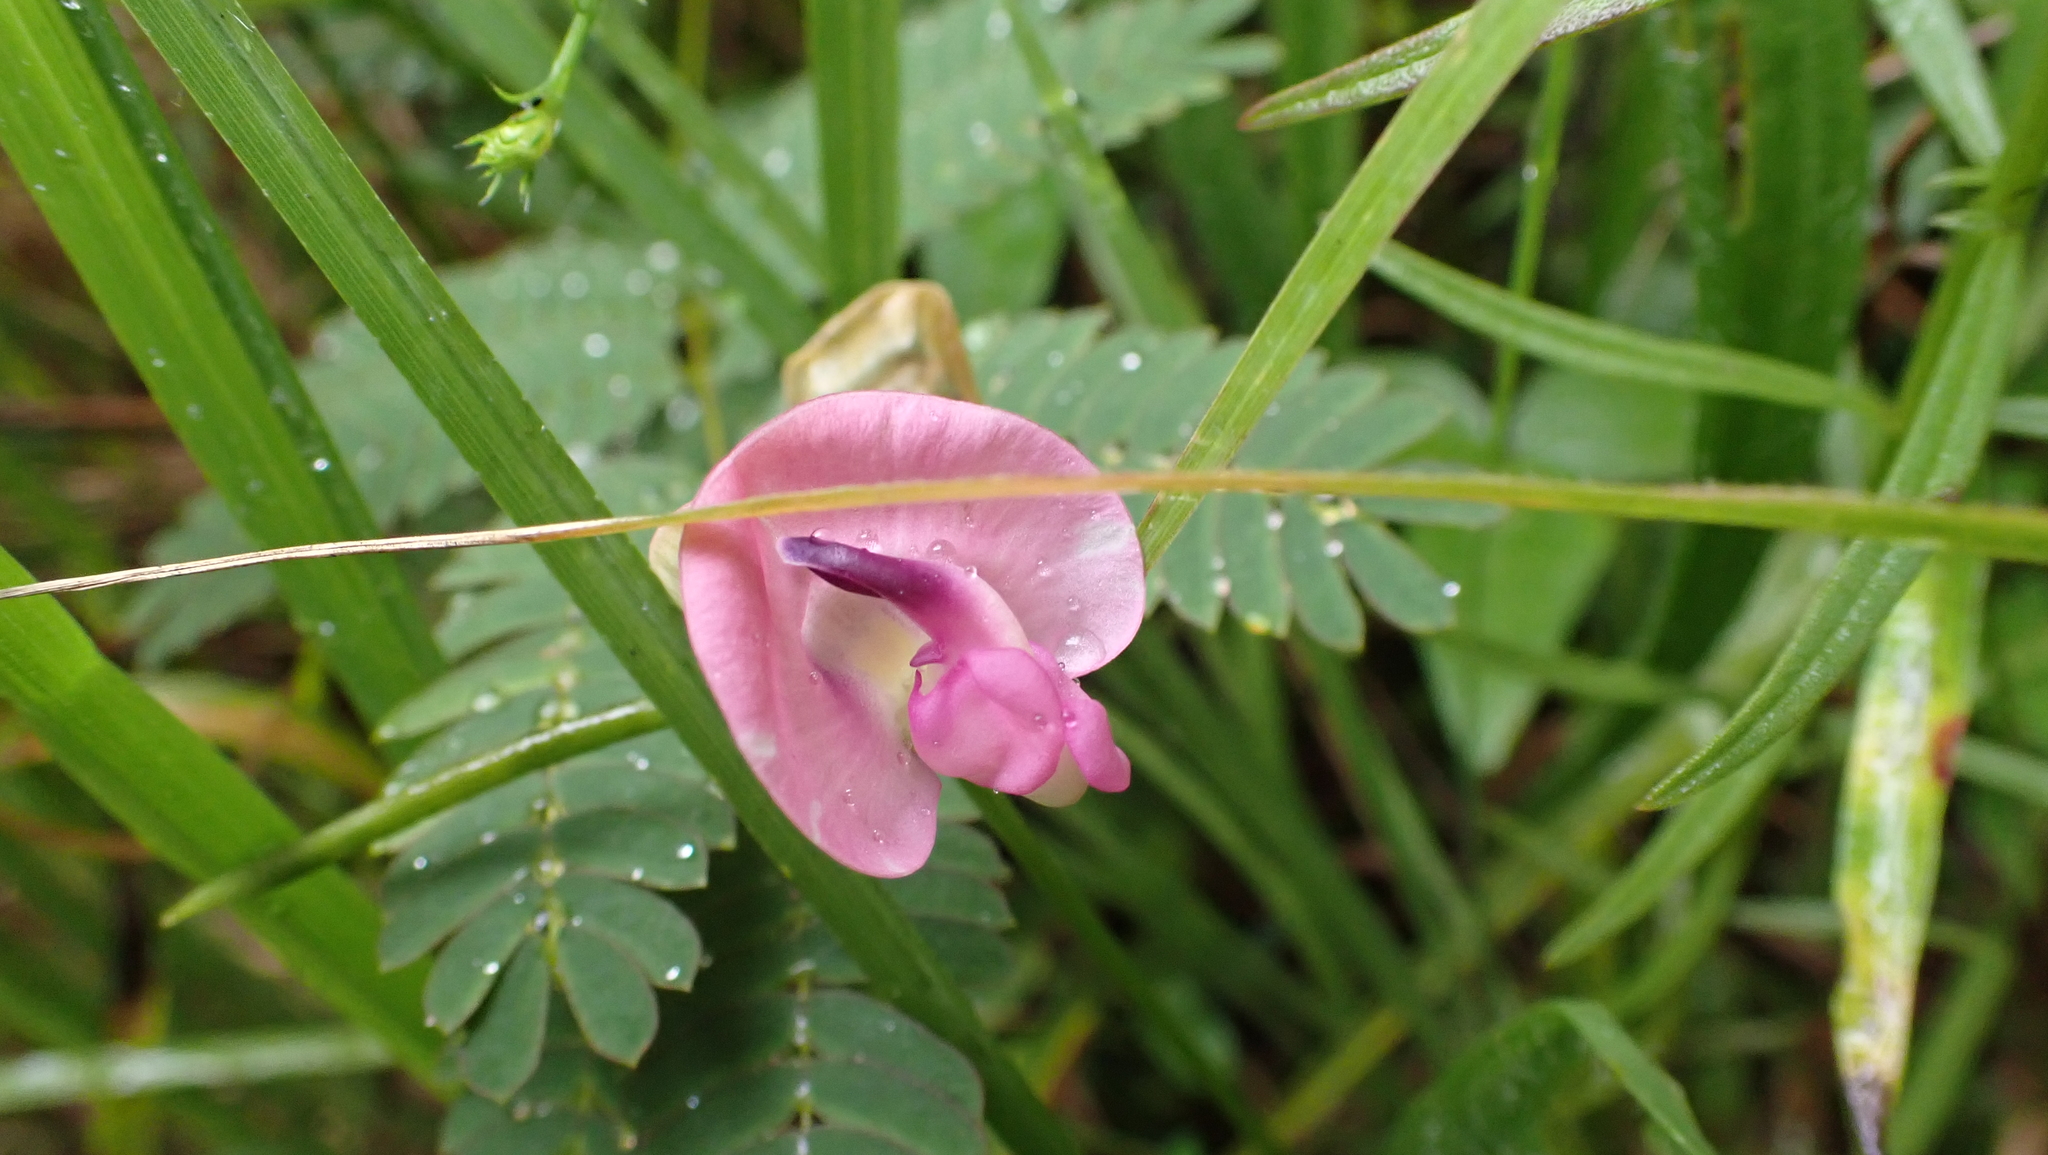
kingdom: Plantae
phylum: Tracheophyta
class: Magnoliopsida
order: Fabales
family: Fabaceae
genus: Strophostyles
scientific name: Strophostyles umbellata
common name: Perennial wild bean
